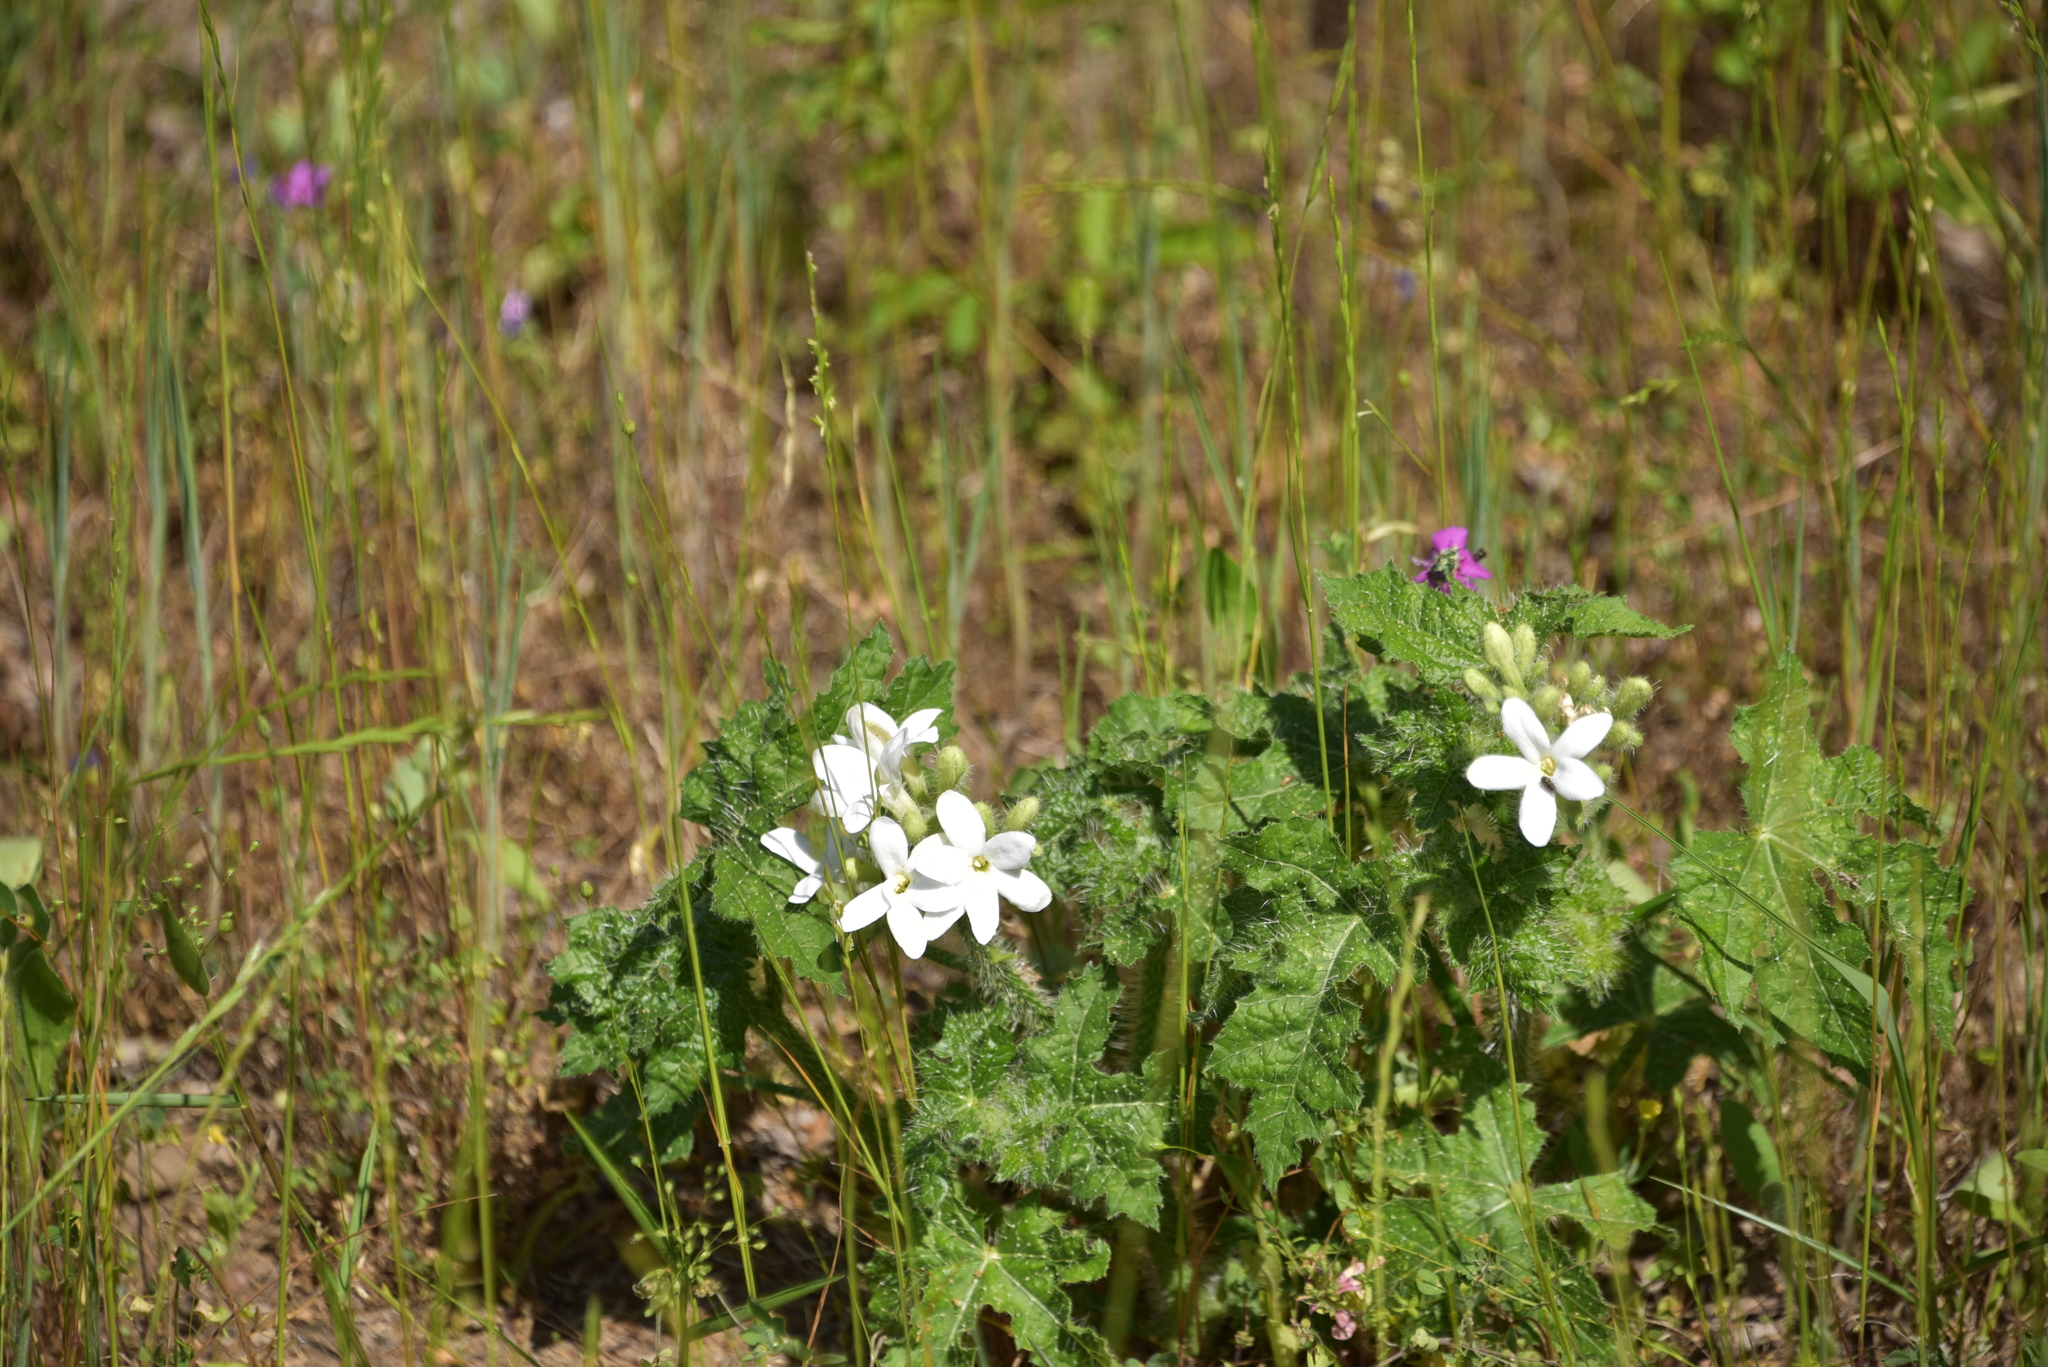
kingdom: Plantae
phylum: Tracheophyta
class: Magnoliopsida
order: Malpighiales
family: Euphorbiaceae
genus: Cnidoscolus
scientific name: Cnidoscolus texanus
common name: Texas bull-nettle
